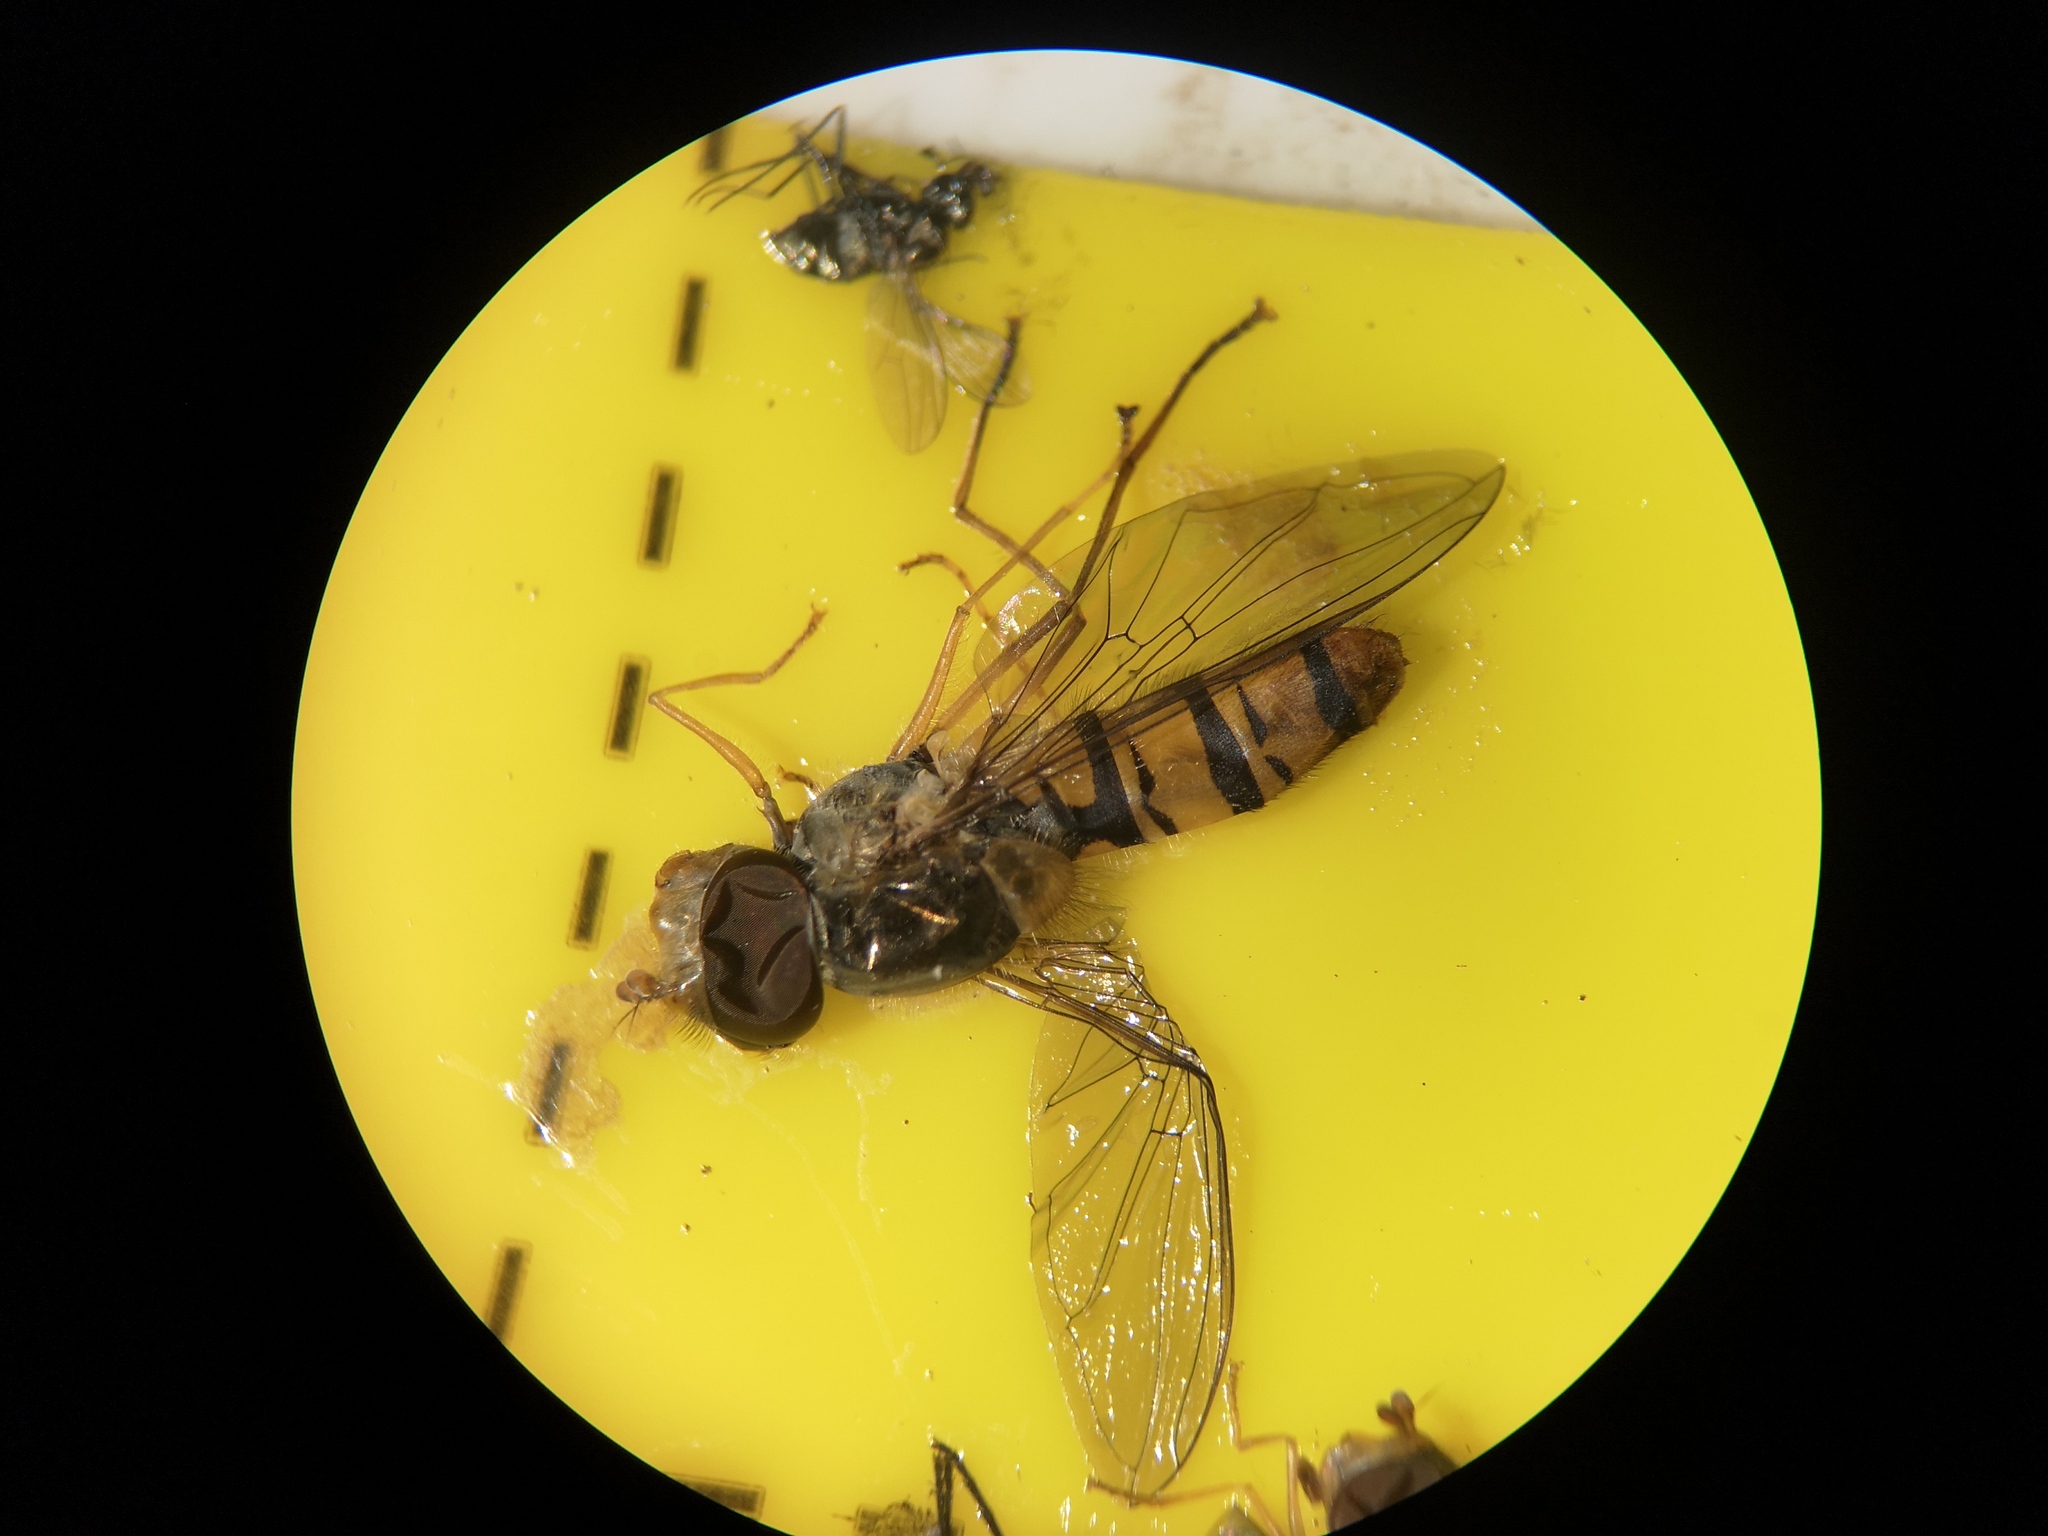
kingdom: Animalia
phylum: Arthropoda
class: Insecta
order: Diptera
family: Syrphidae
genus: Episyrphus
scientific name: Episyrphus balteatus
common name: Marmalade hoverfly
